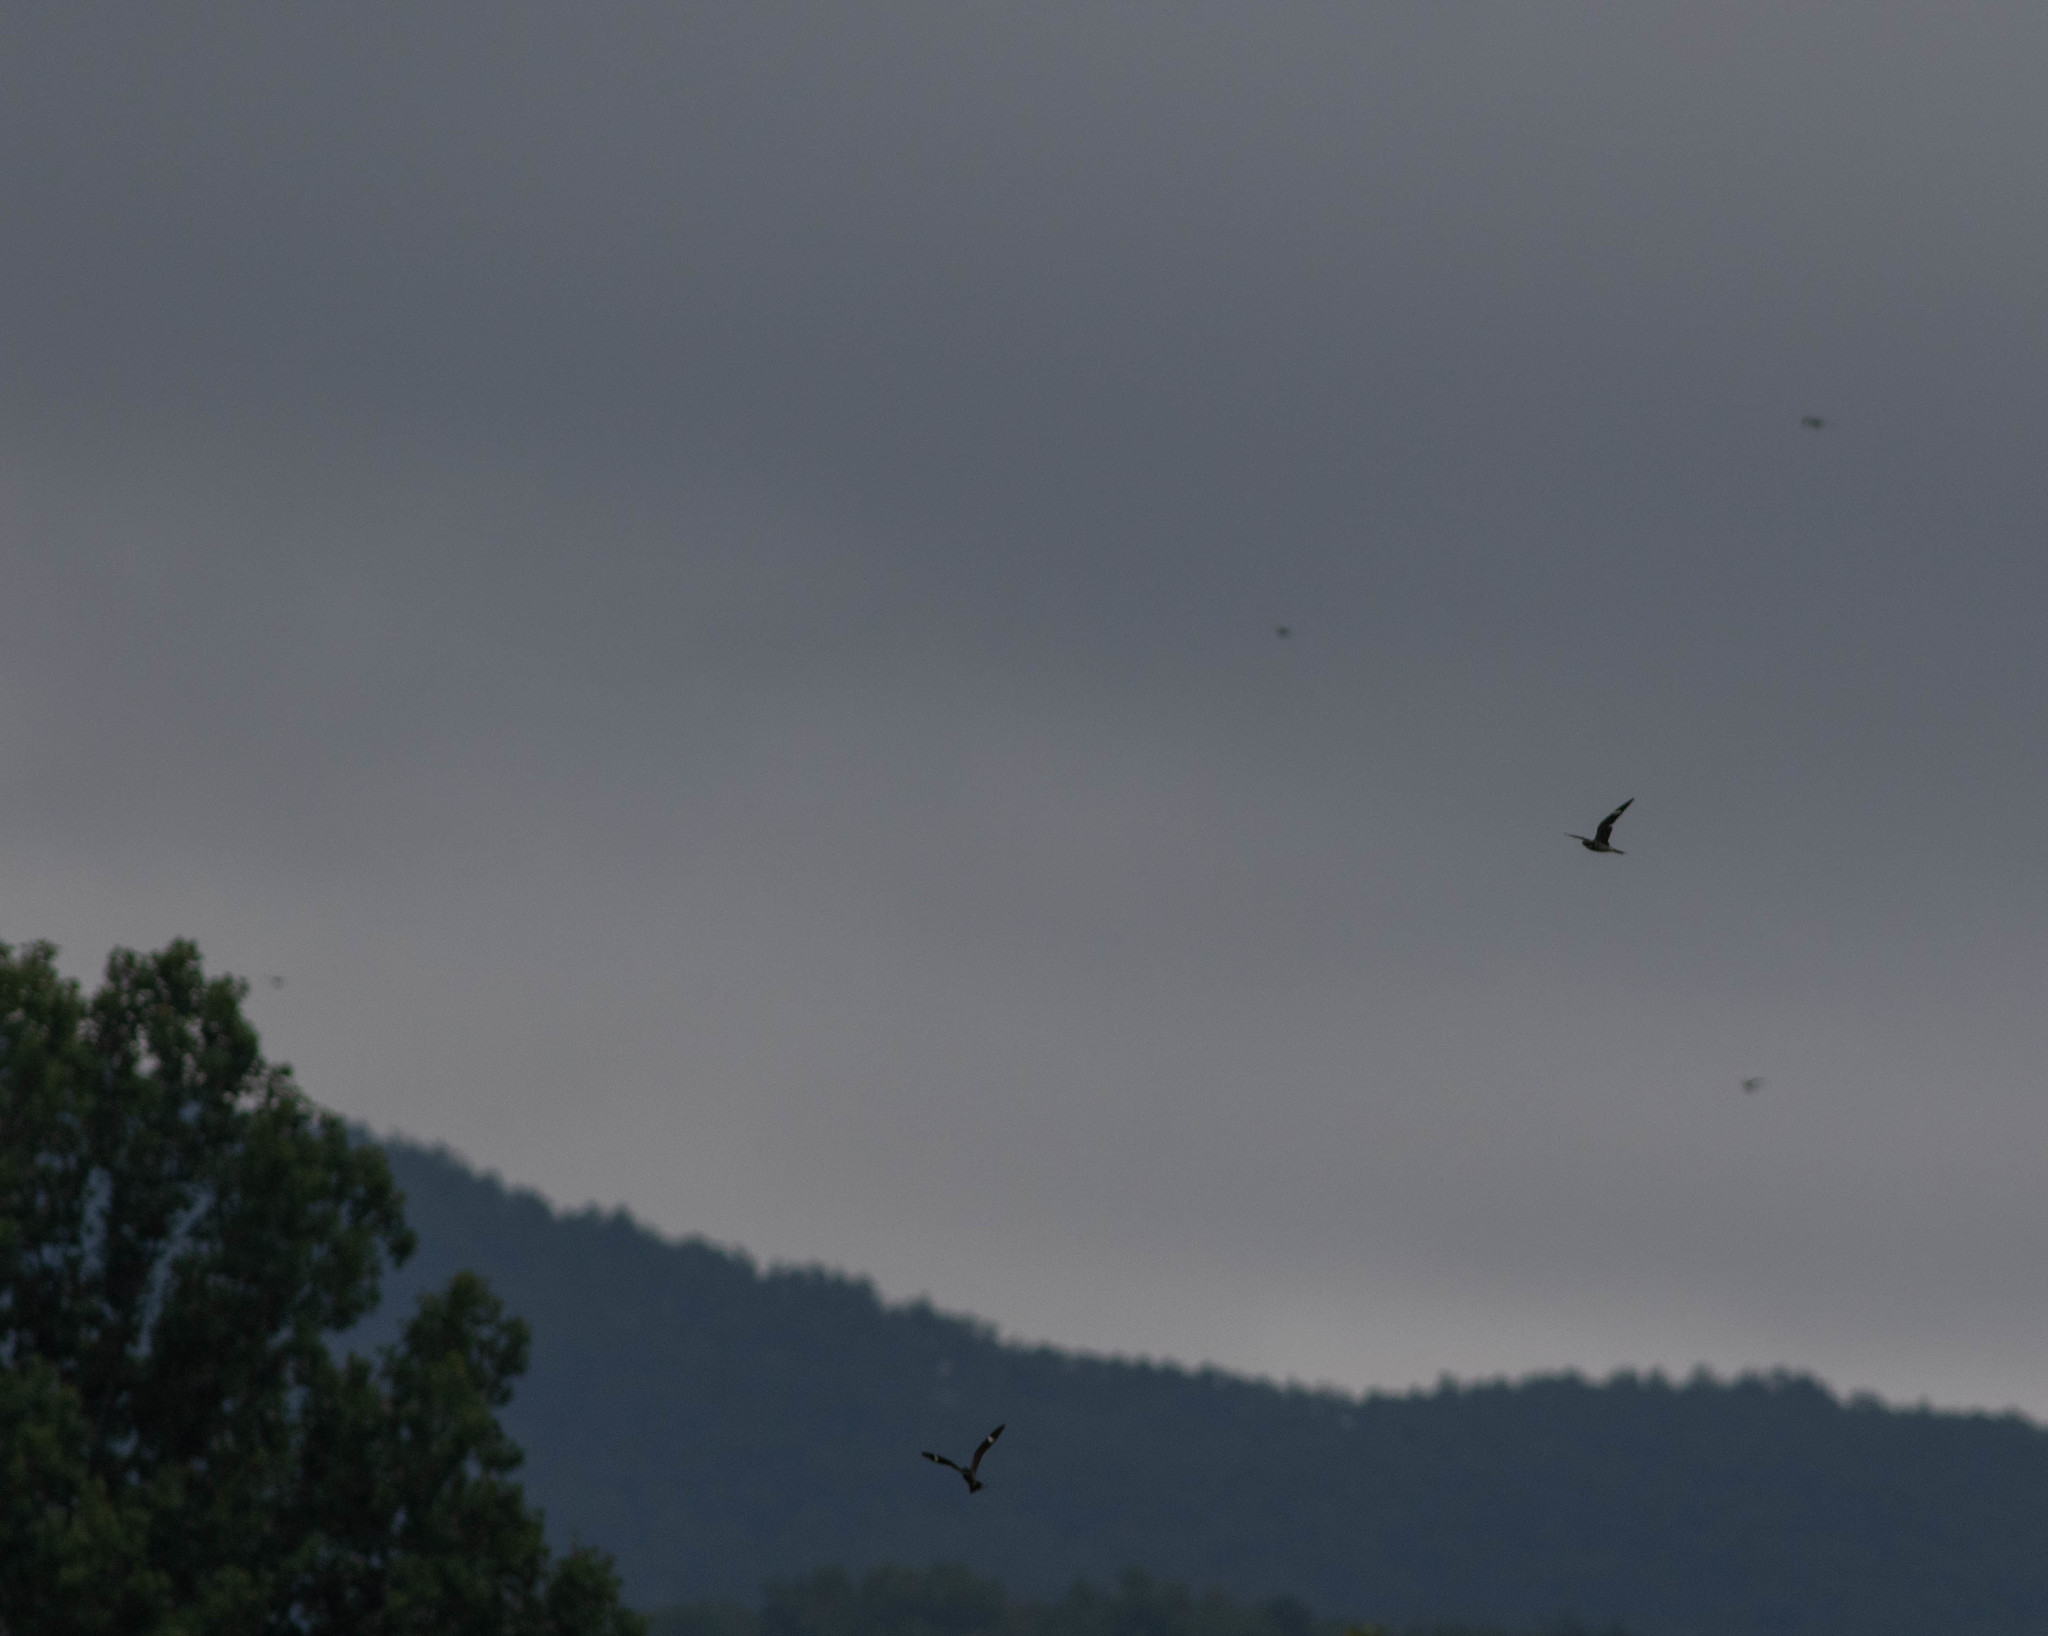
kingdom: Animalia
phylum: Chordata
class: Aves
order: Caprimulgiformes
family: Caprimulgidae
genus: Chordeiles
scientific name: Chordeiles minor
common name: Common nighthawk
